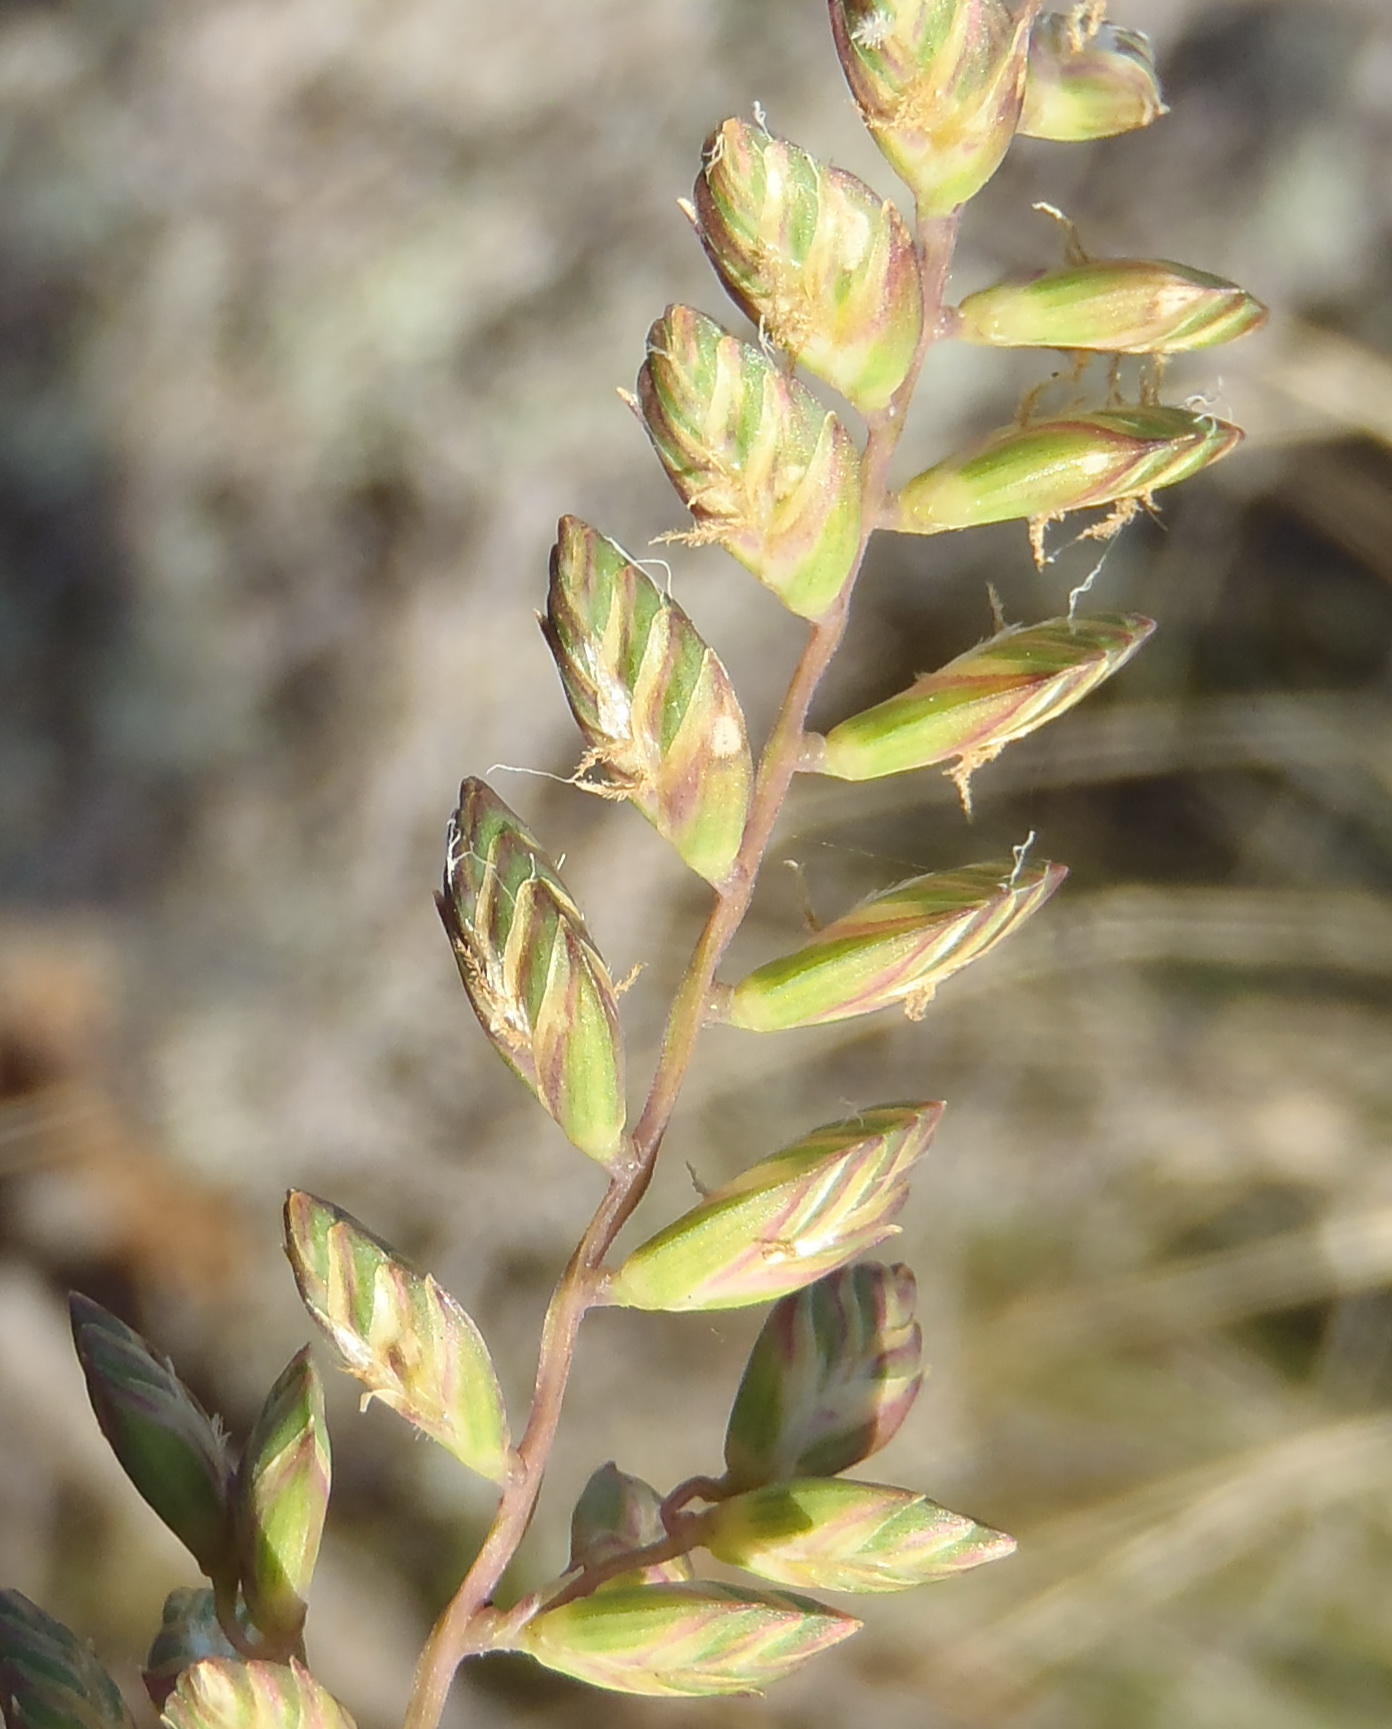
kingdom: Plantae
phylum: Tracheophyta
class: Liliopsida
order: Poales
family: Poaceae
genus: Tribolium
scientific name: Tribolium uniolae
